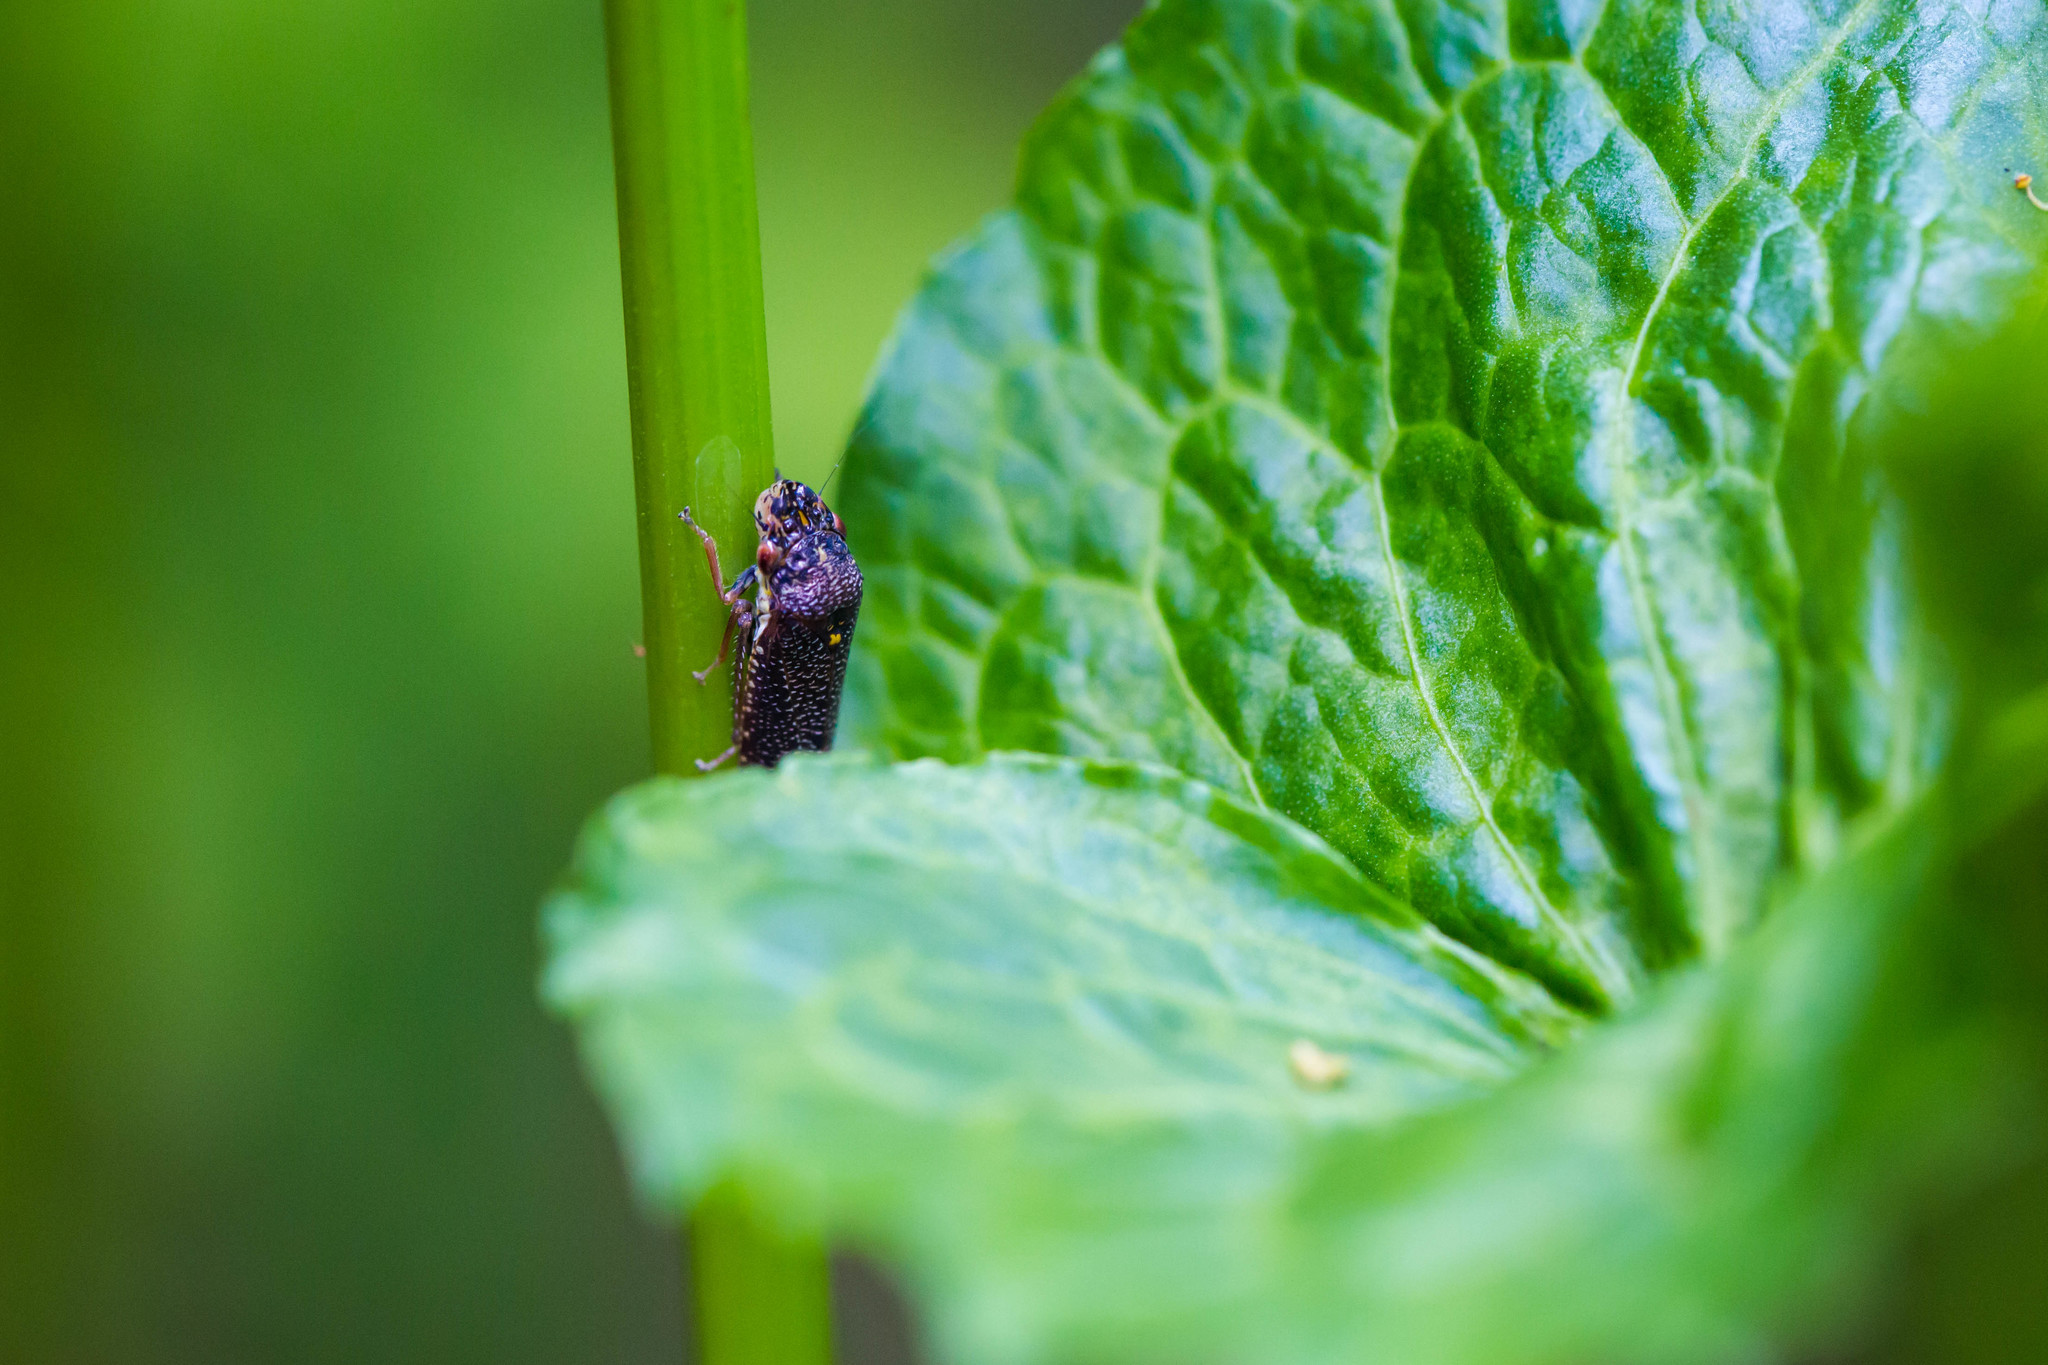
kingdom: Animalia
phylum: Arthropoda
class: Insecta
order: Hemiptera
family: Cicadellidae
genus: Paraulacizes
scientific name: Paraulacizes irrorata
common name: Speckled sharpshooter
